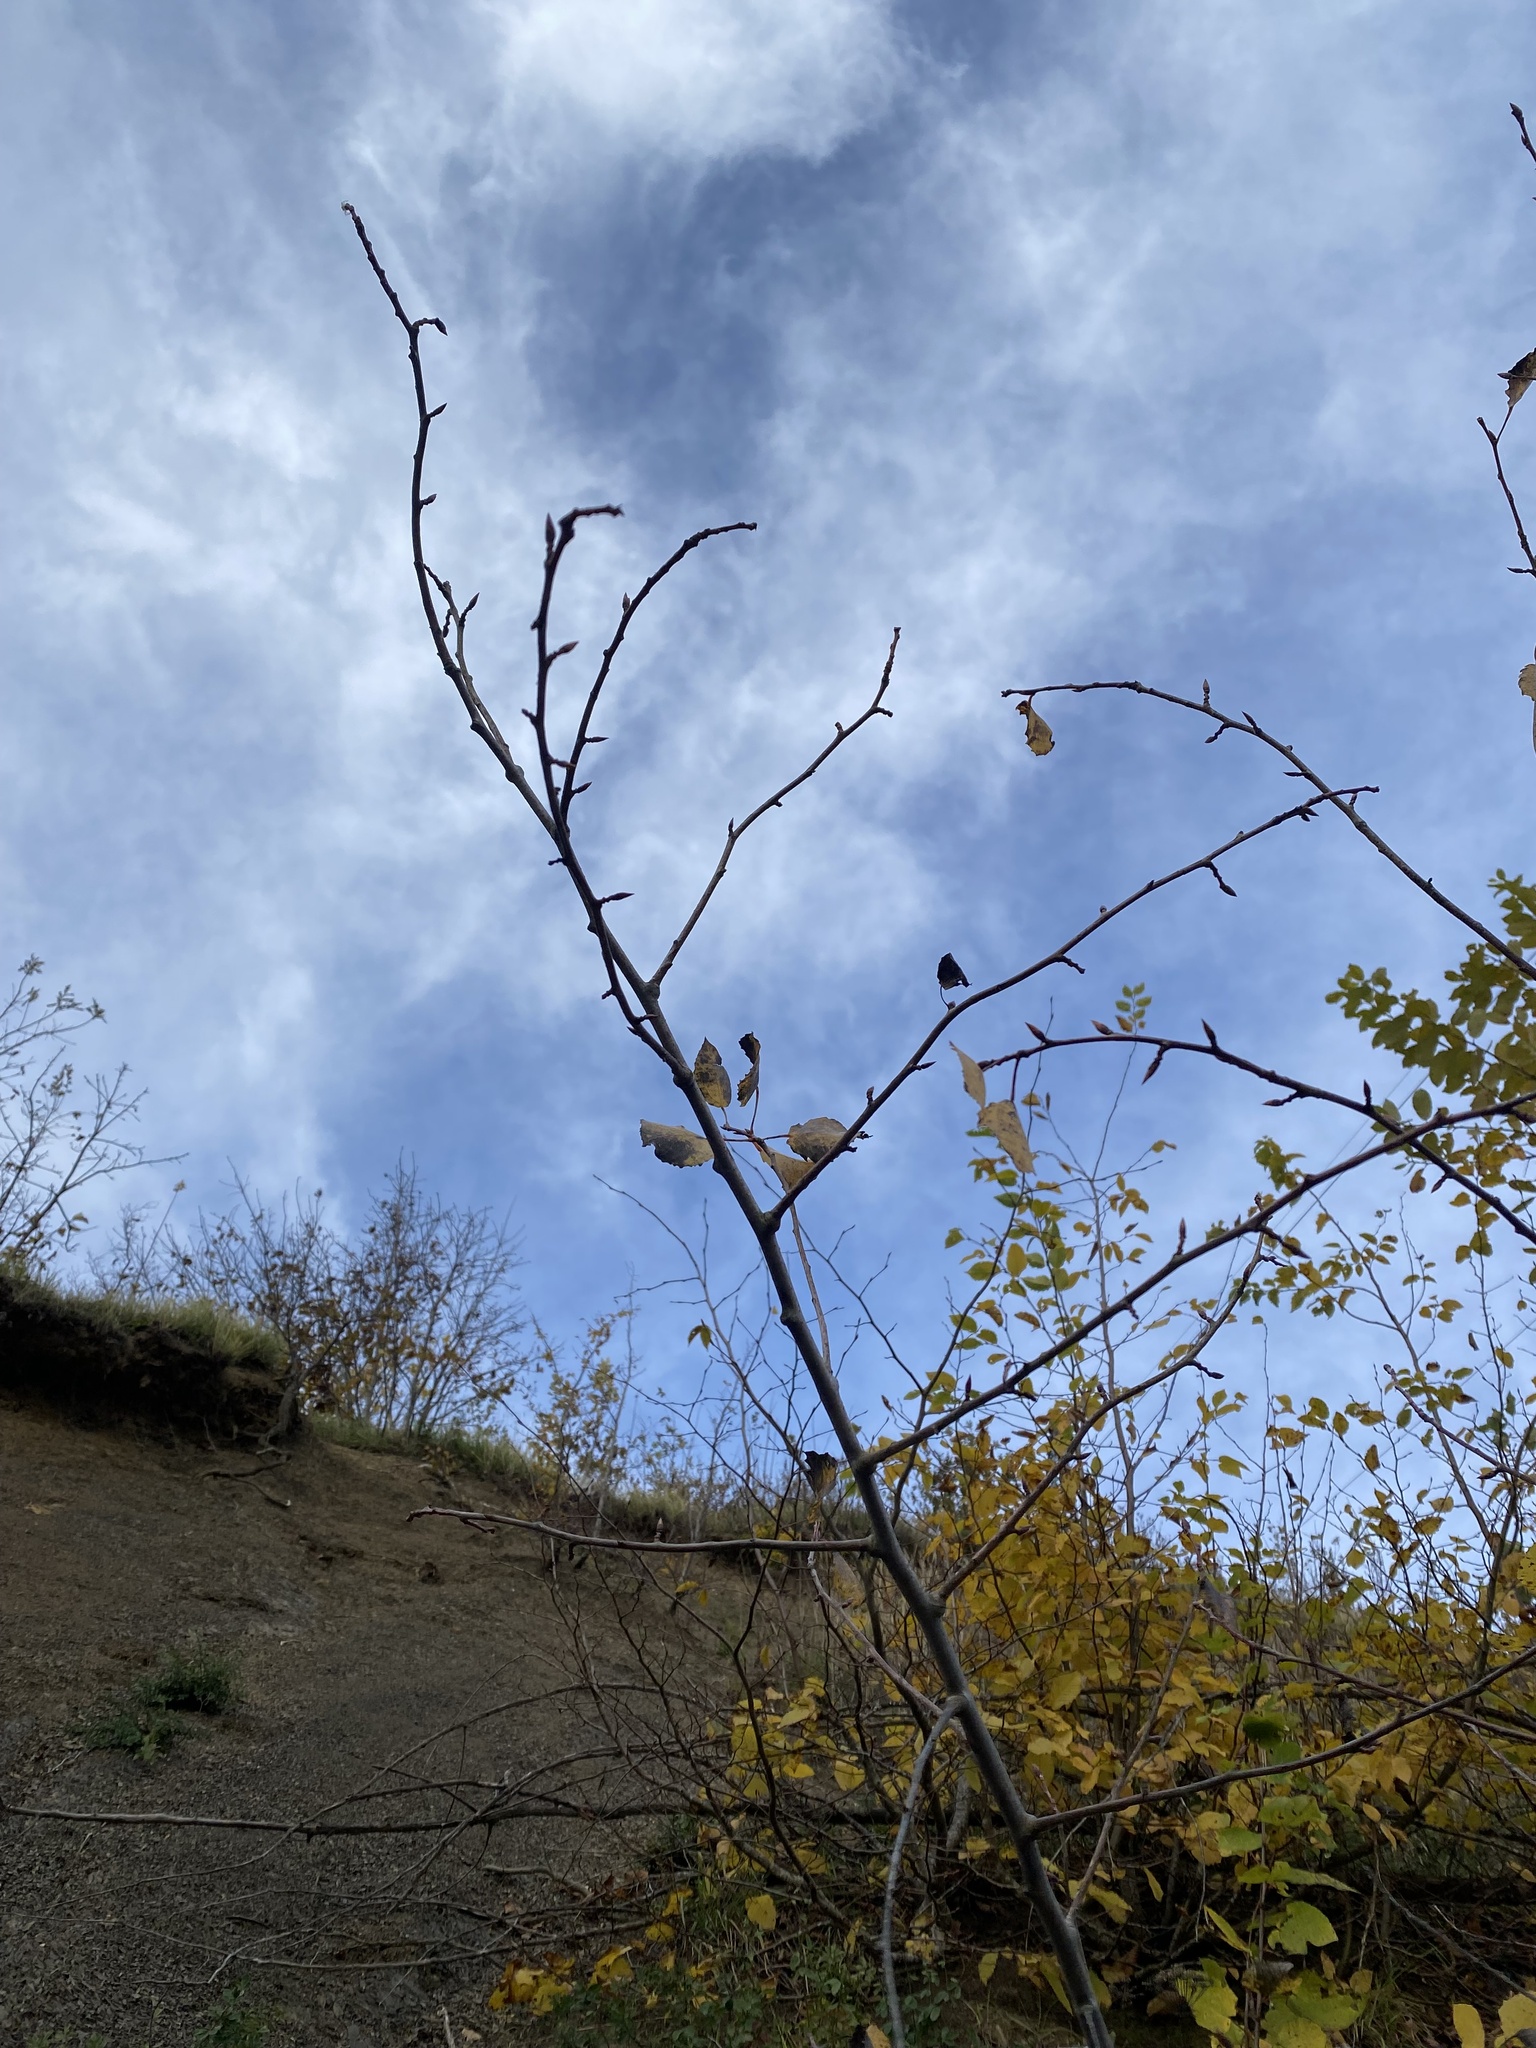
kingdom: Plantae
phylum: Tracheophyta
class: Magnoliopsida
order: Malpighiales
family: Salicaceae
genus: Populus
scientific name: Populus tremula
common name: European aspen
